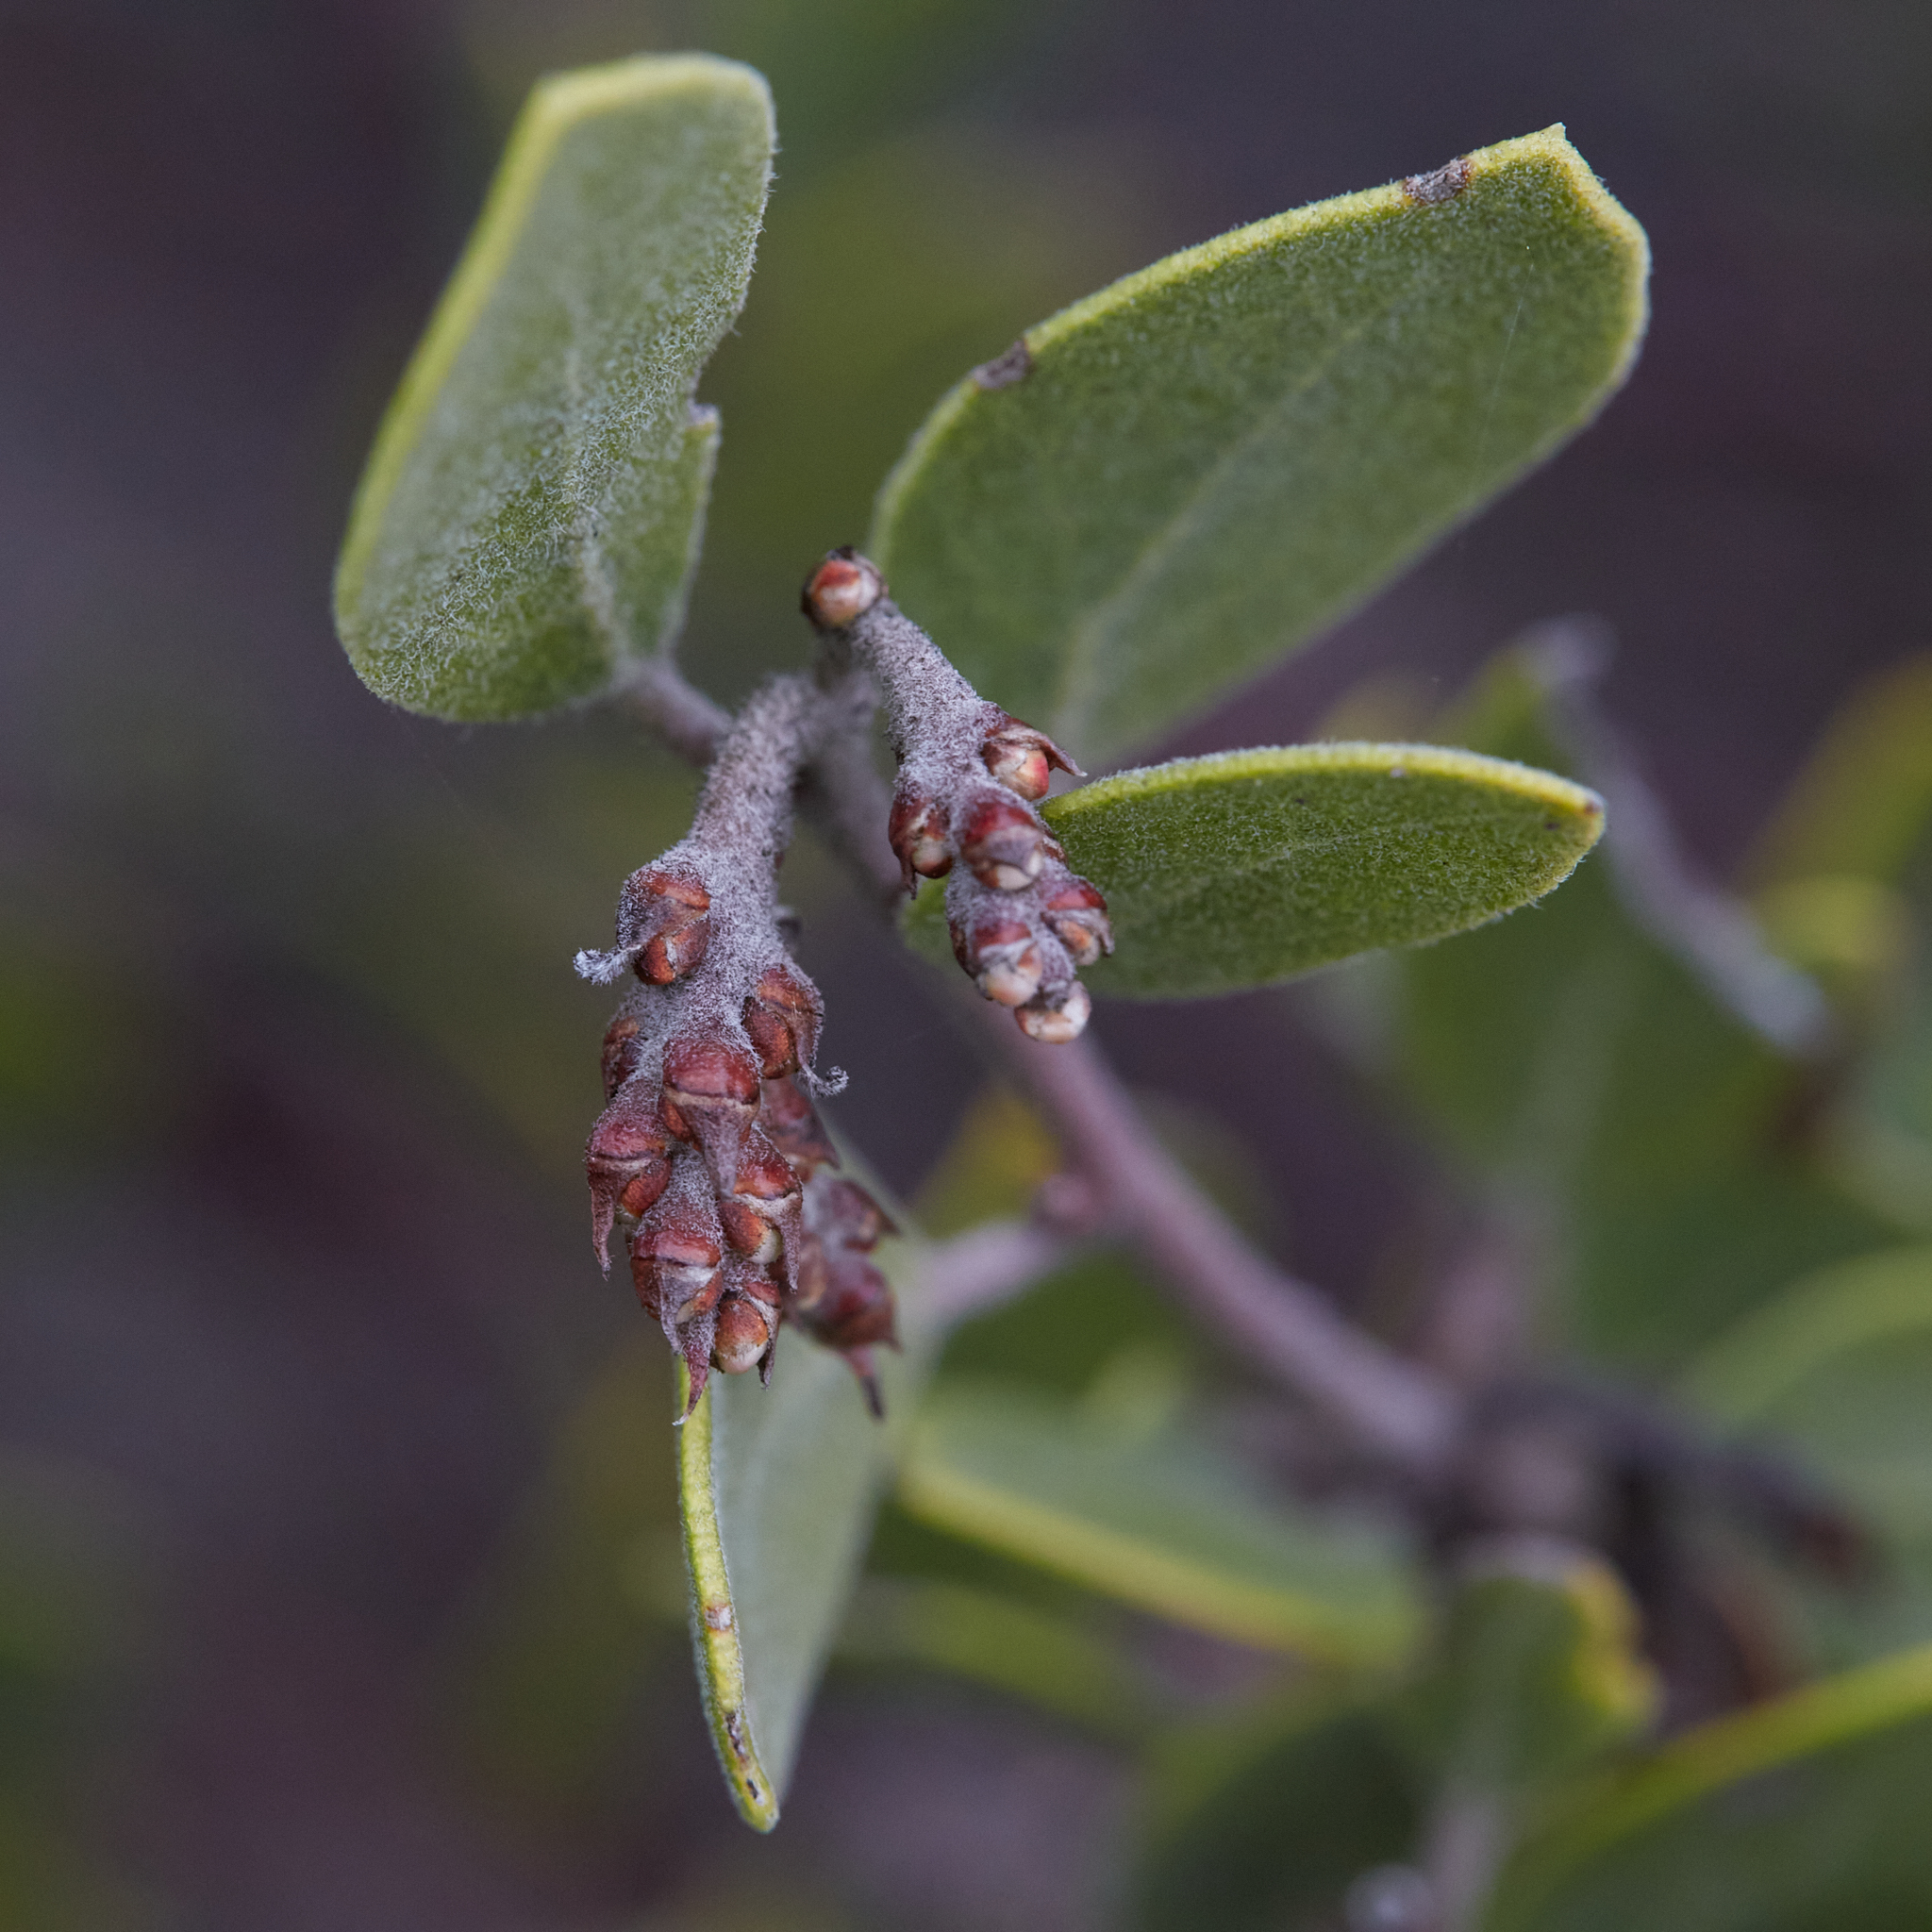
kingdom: Plantae
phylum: Tracheophyta
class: Magnoliopsida
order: Ericales
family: Ericaceae
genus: Arctostaphylos
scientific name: Arctostaphylos montana
